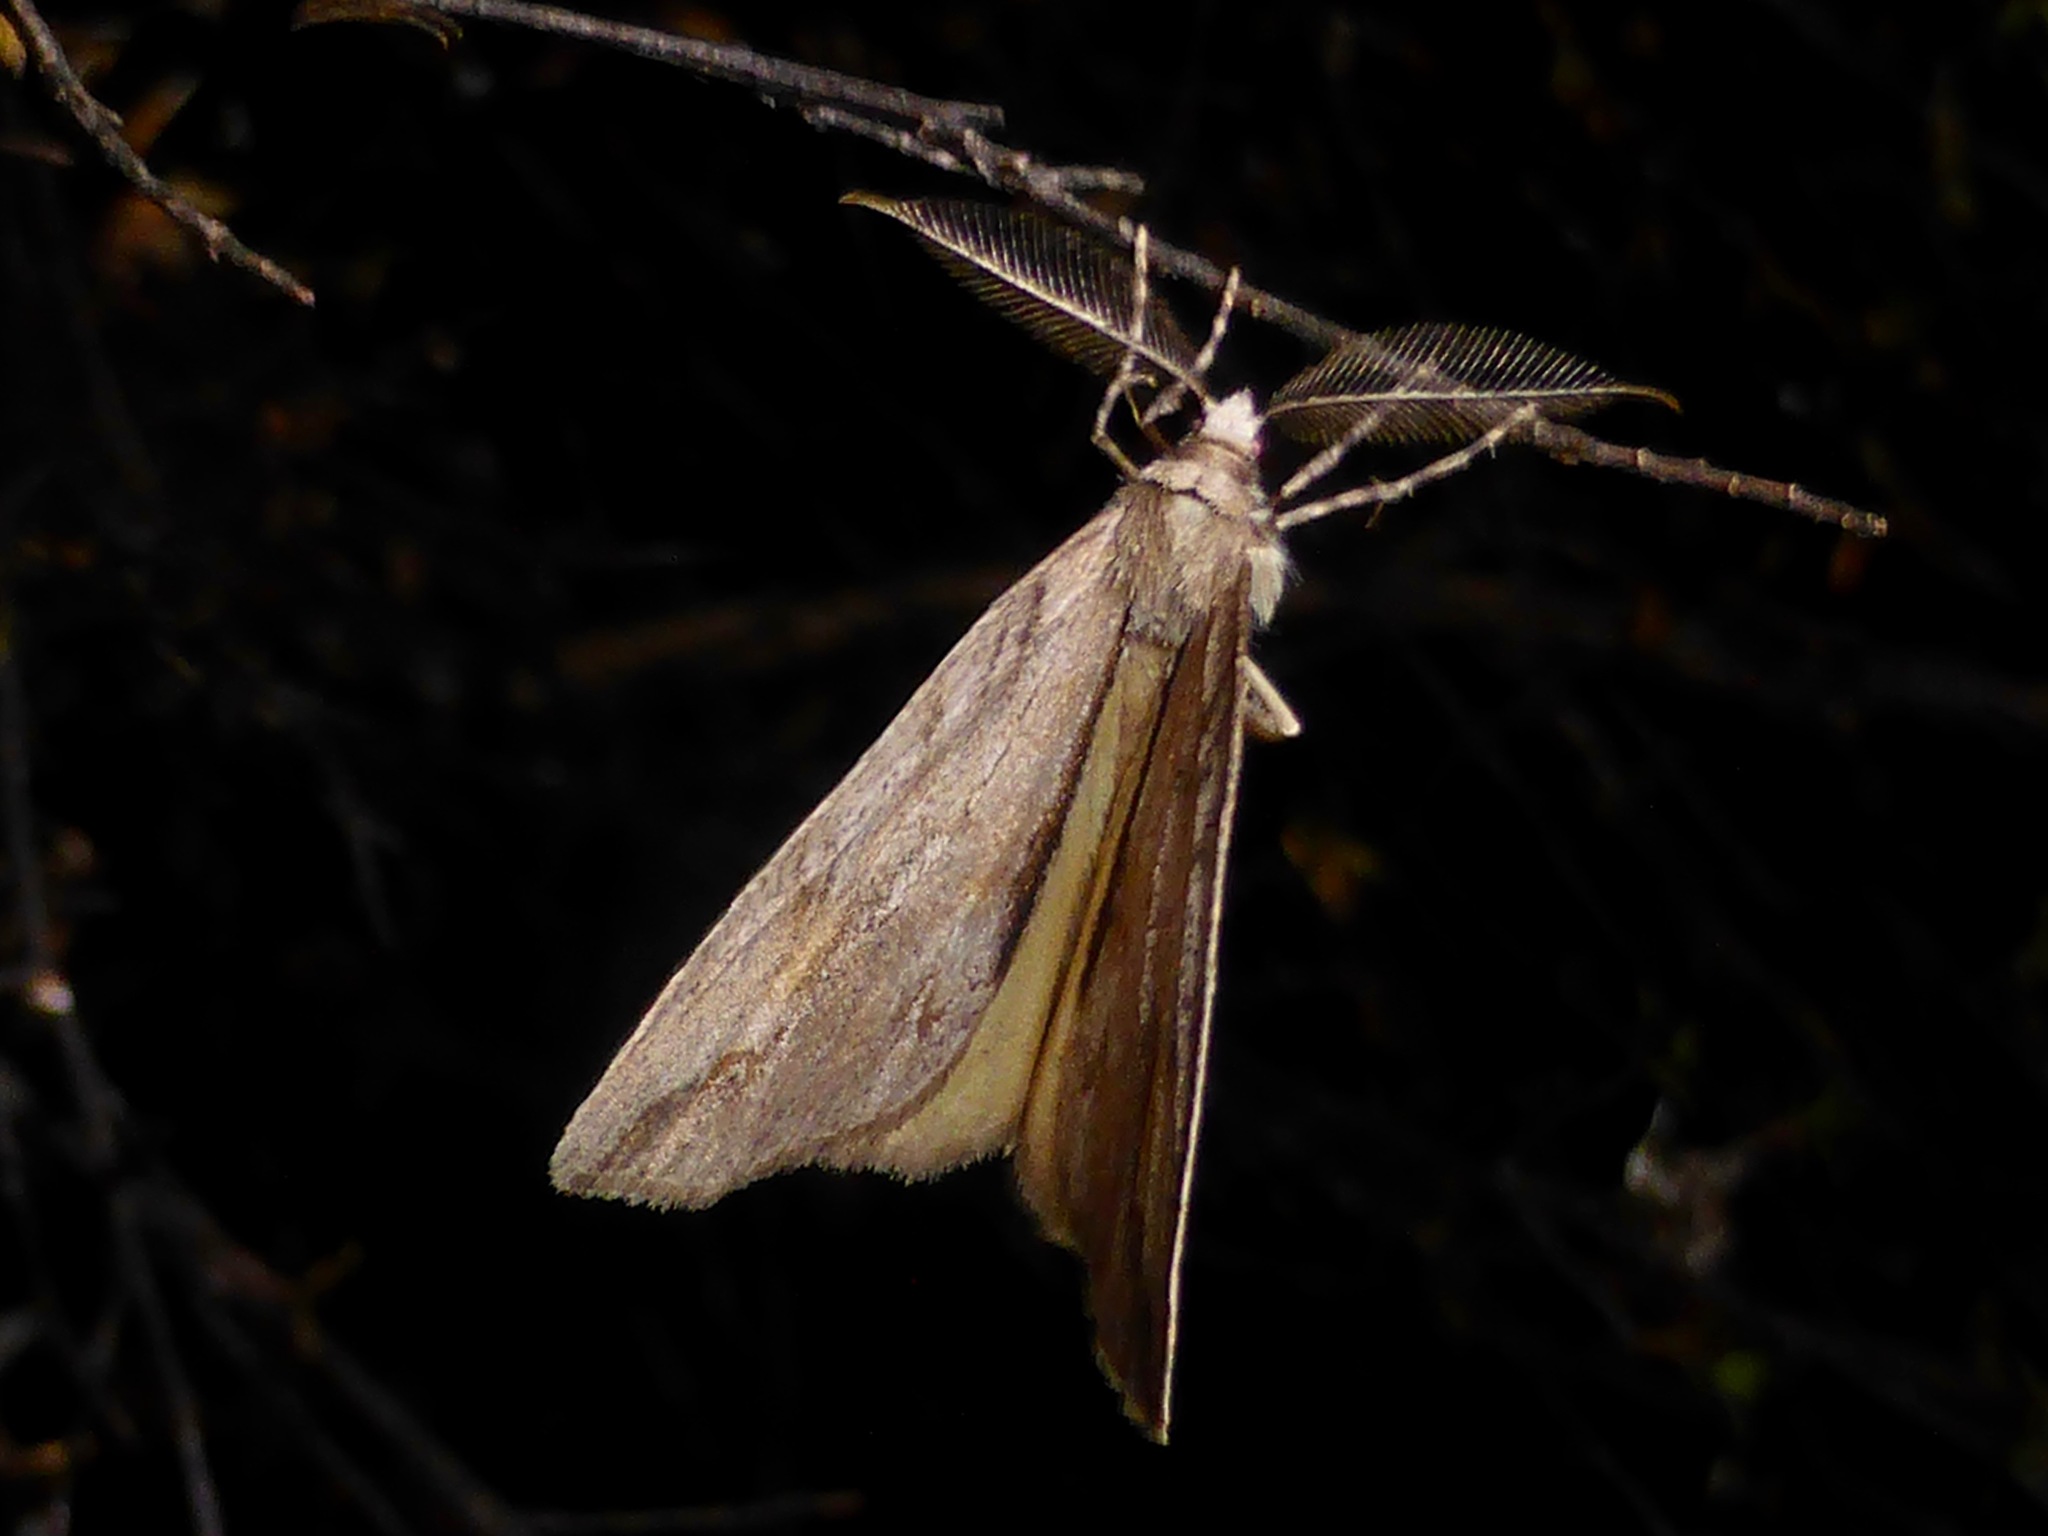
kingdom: Animalia
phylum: Arthropoda
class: Insecta
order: Lepidoptera
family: Geometridae
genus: Pseudocoremia
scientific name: Pseudocoremia lupinata
